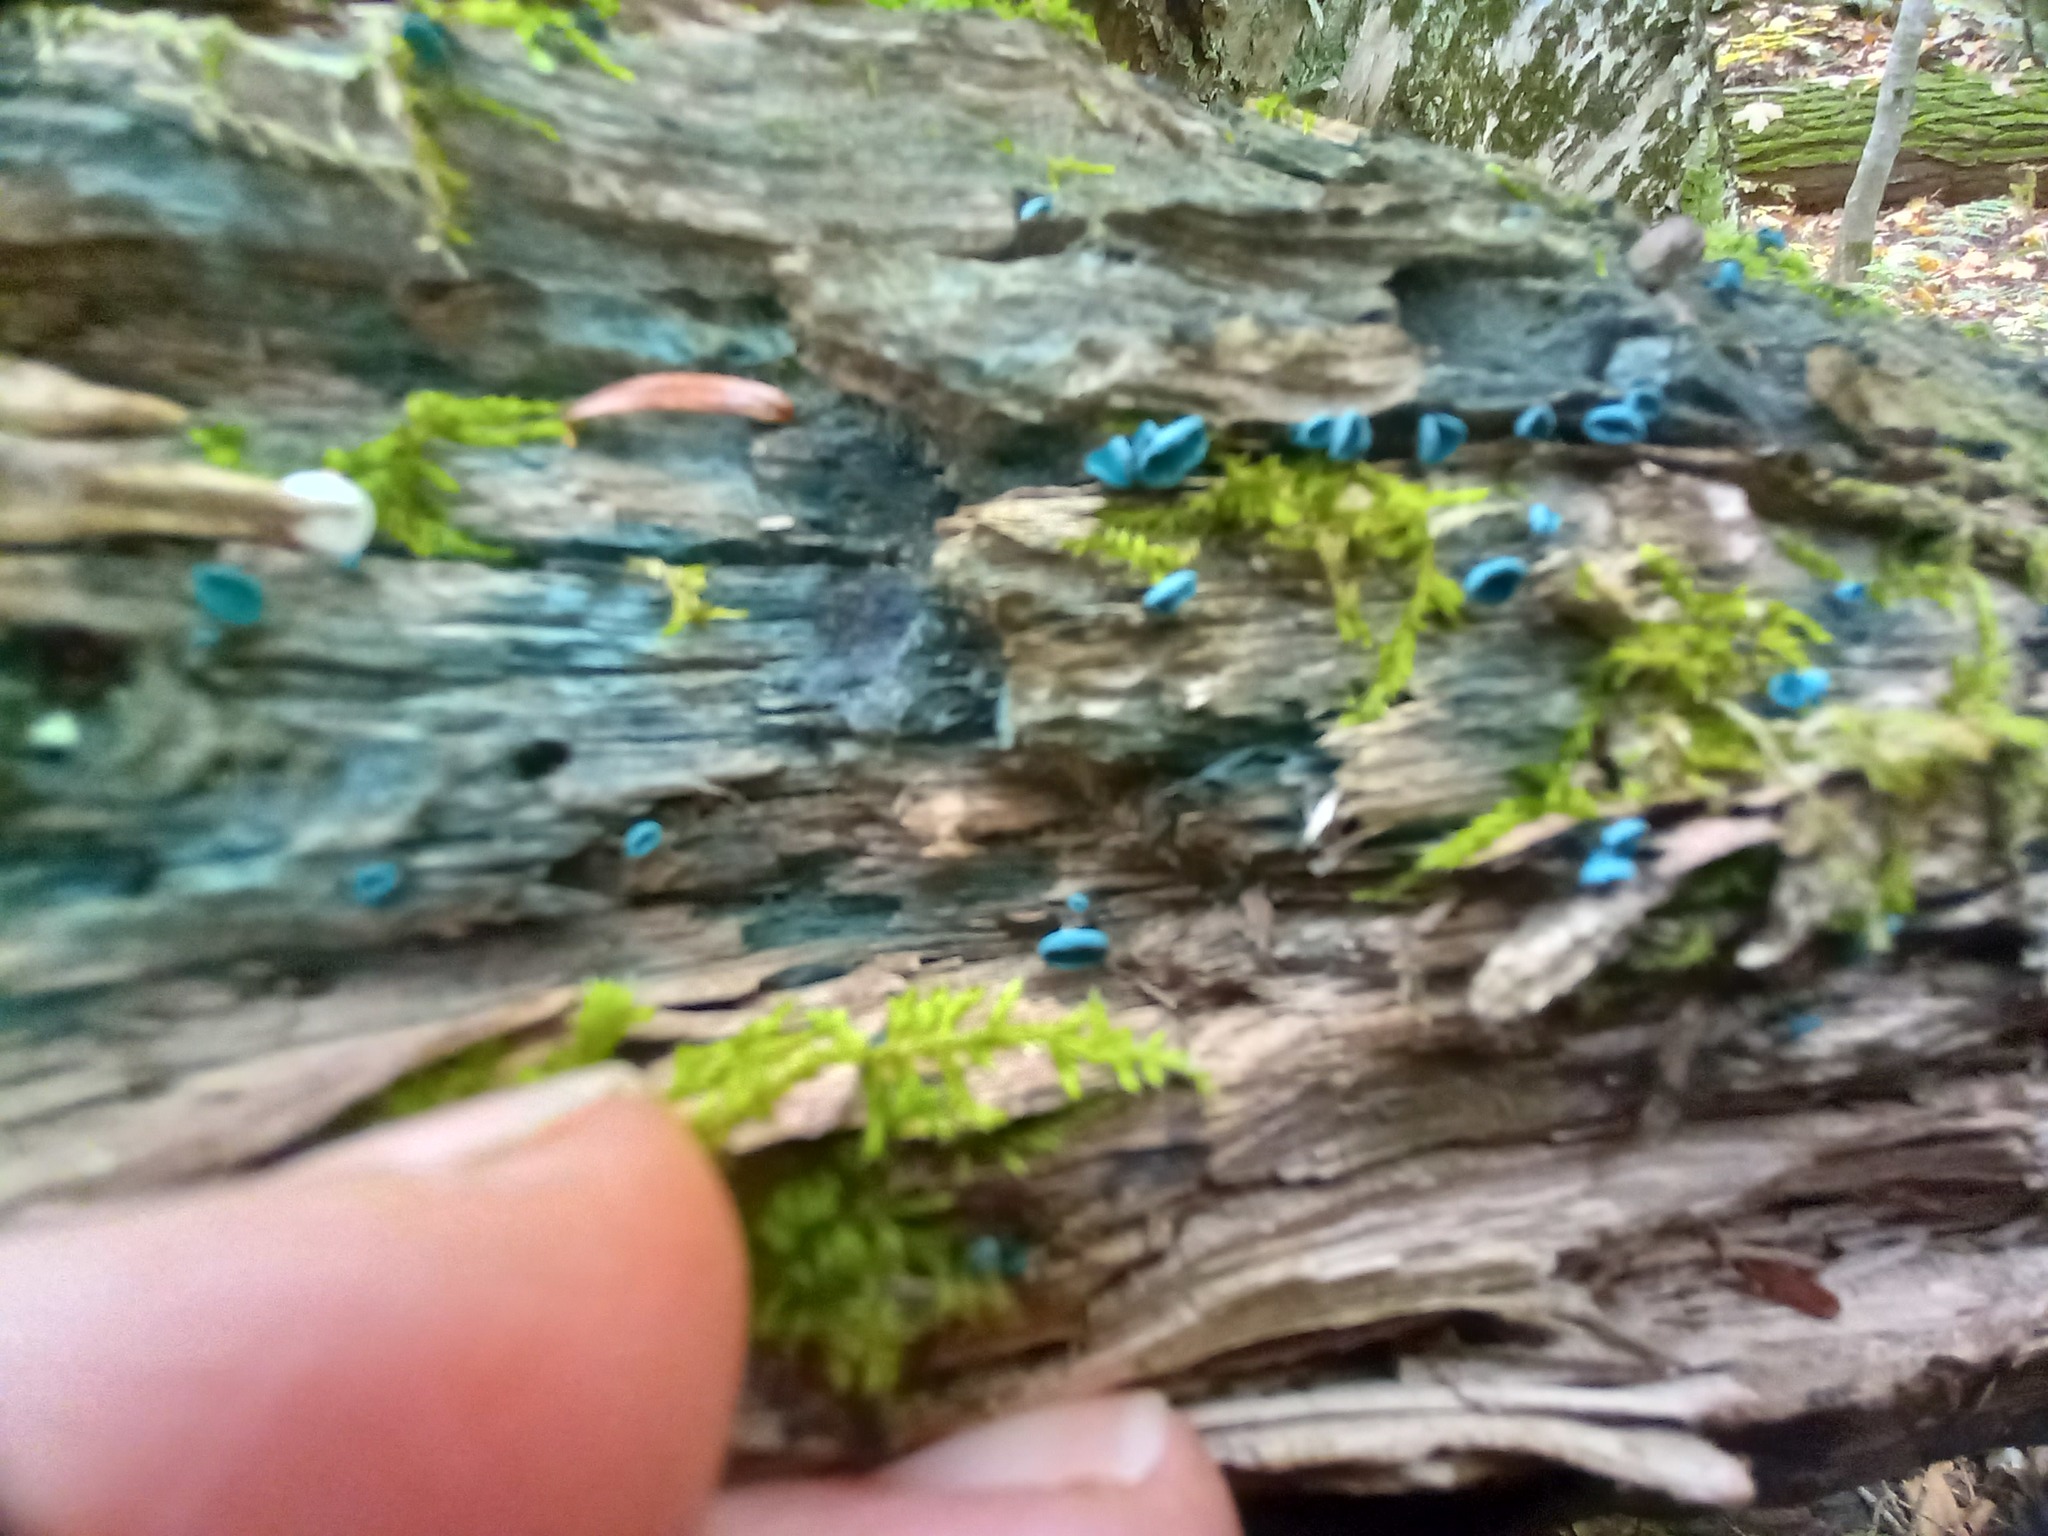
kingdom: Fungi
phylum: Ascomycota
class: Leotiomycetes
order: Helotiales
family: Chlorociboriaceae
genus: Chlorociboria
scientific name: Chlorociboria aeruginascens
